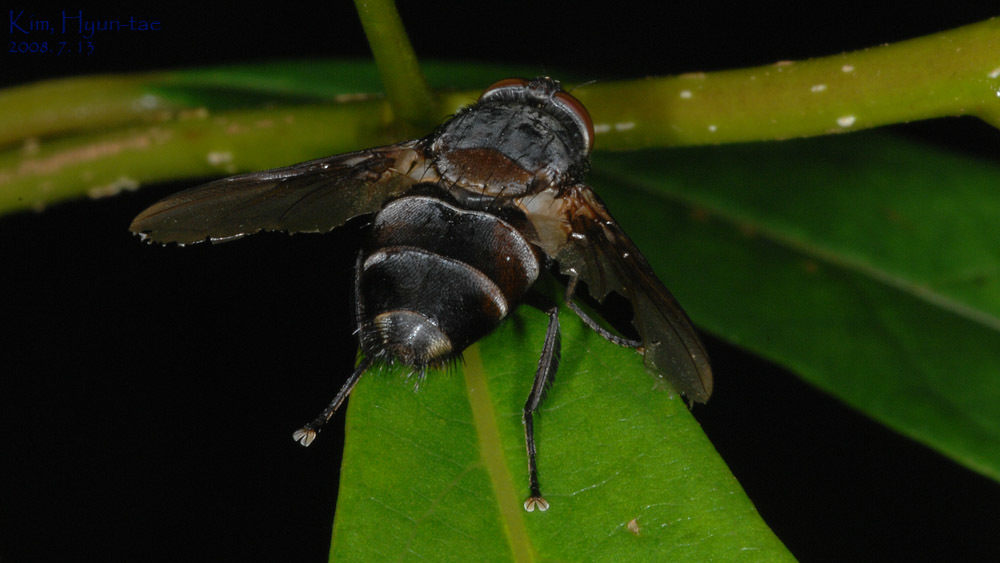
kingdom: Animalia
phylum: Arthropoda
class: Insecta
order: Diptera
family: Calliphoridae
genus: Chrysomya
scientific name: Chrysomya pinguis
